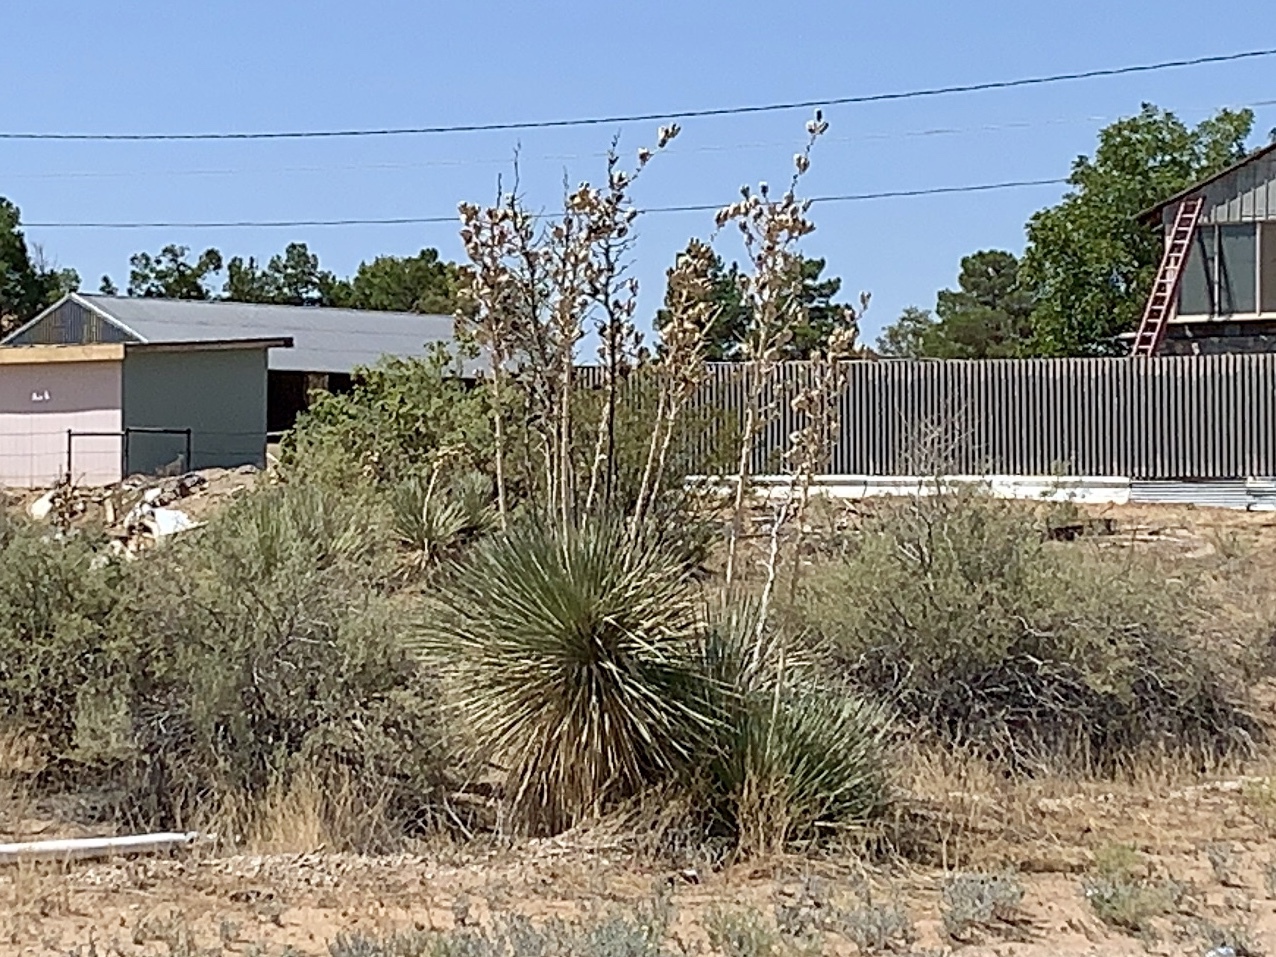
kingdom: Plantae
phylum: Tracheophyta
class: Liliopsida
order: Asparagales
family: Asparagaceae
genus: Yucca
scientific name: Yucca elata
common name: Palmella
